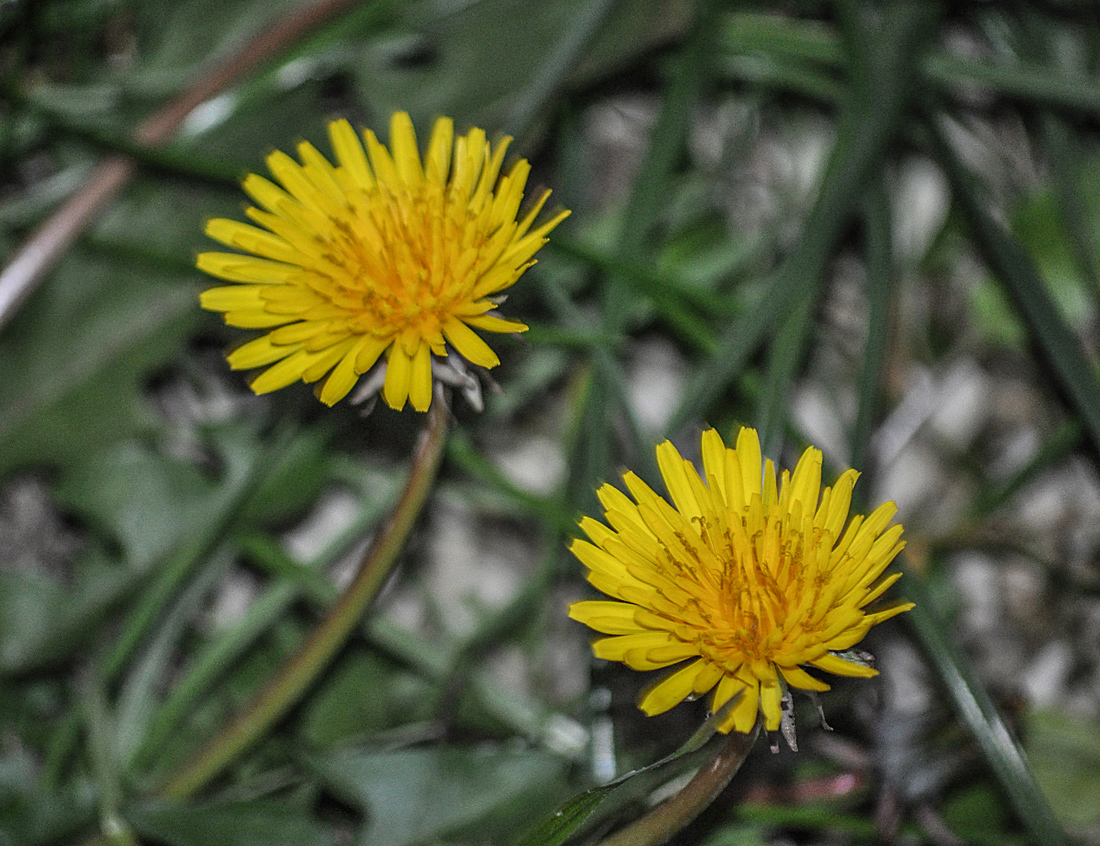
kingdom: Plantae
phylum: Tracheophyta
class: Magnoliopsida
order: Asterales
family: Asteraceae
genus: Taraxacum
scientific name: Taraxacum officinale
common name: Common dandelion
